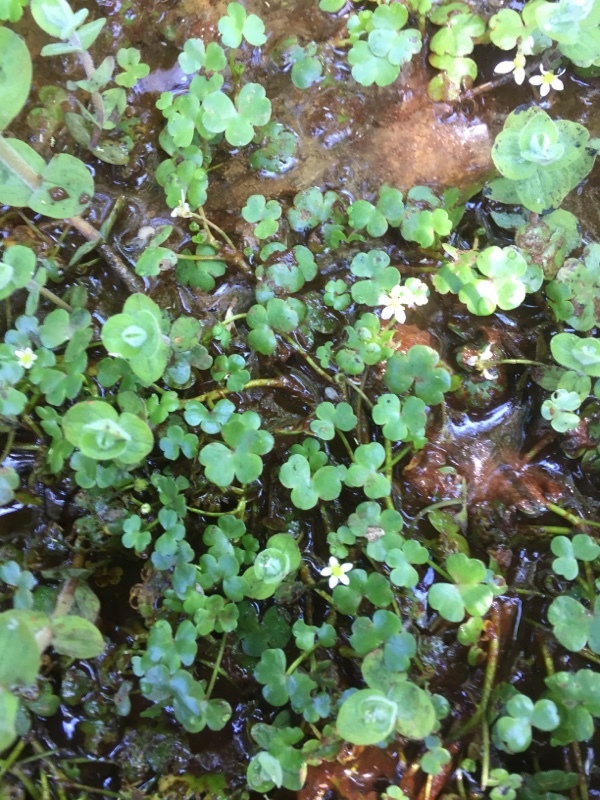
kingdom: Plantae
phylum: Tracheophyta
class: Magnoliopsida
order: Ranunculales
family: Ranunculaceae
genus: Ranunculus
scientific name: Ranunculus omiophyllus
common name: Round-leaved crowfoot
